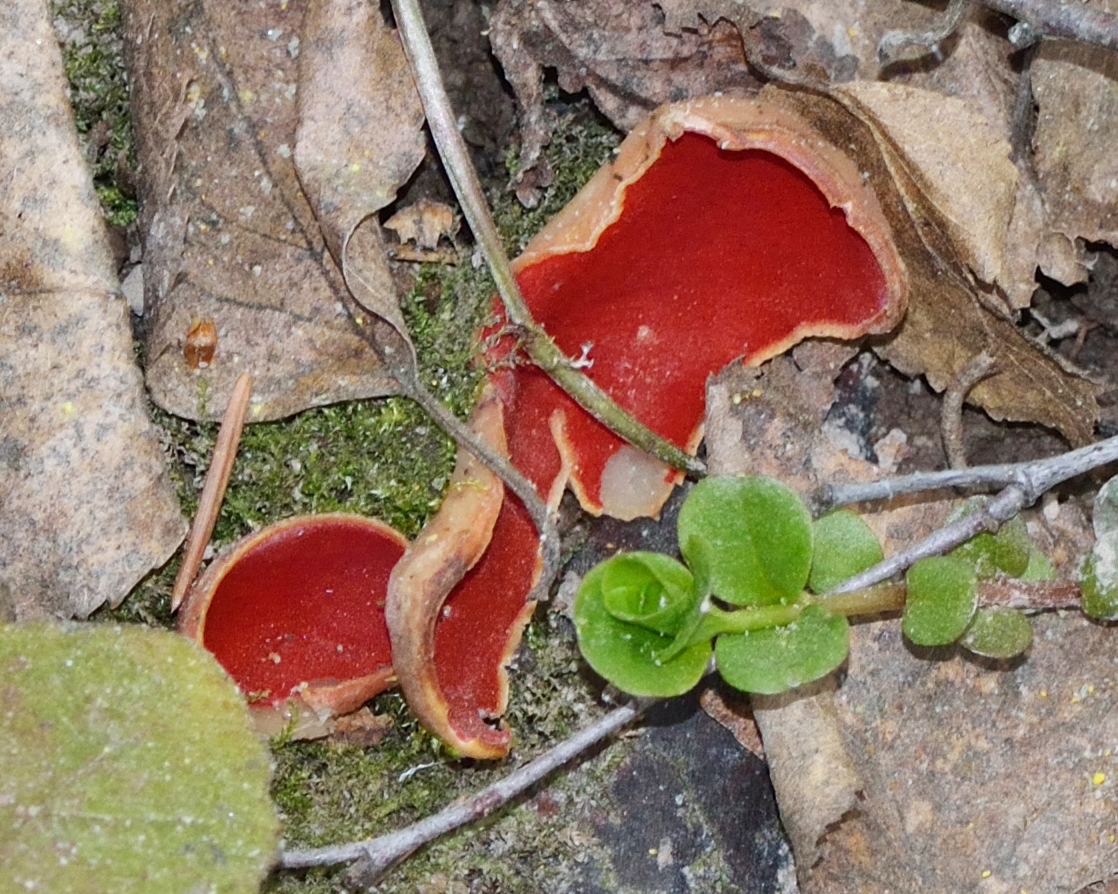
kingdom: Fungi
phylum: Ascomycota
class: Pezizomycetes
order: Pezizales
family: Sarcoscyphaceae
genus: Sarcoscypha
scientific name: Sarcoscypha austriaca
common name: Scarlet elfcup
